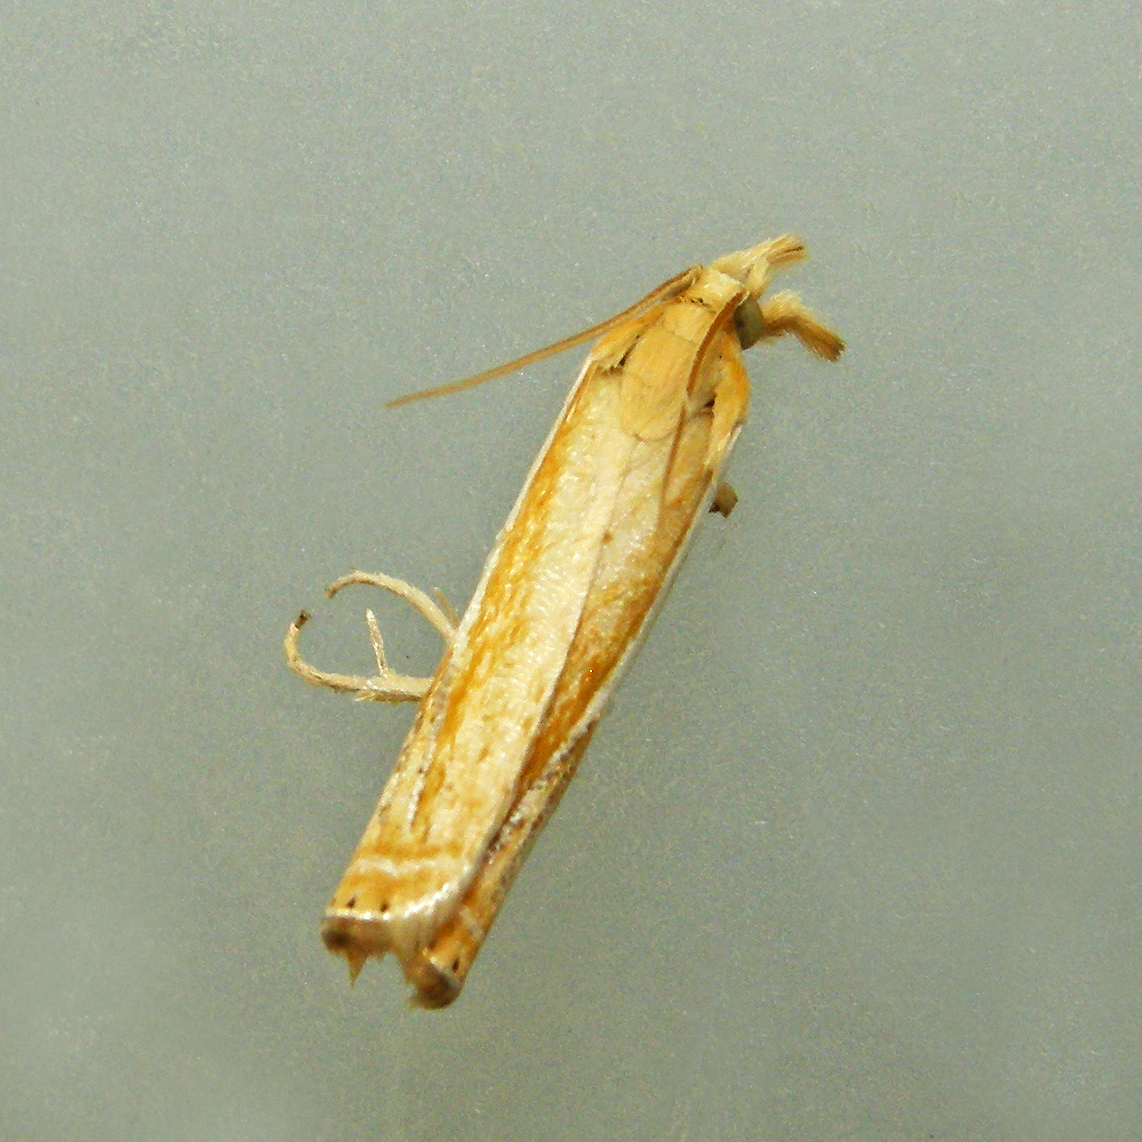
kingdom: Animalia
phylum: Arthropoda
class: Insecta
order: Lepidoptera
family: Crambidae
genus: Crambus
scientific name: Crambus agitatellus
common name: Double-banded grass-veneer
